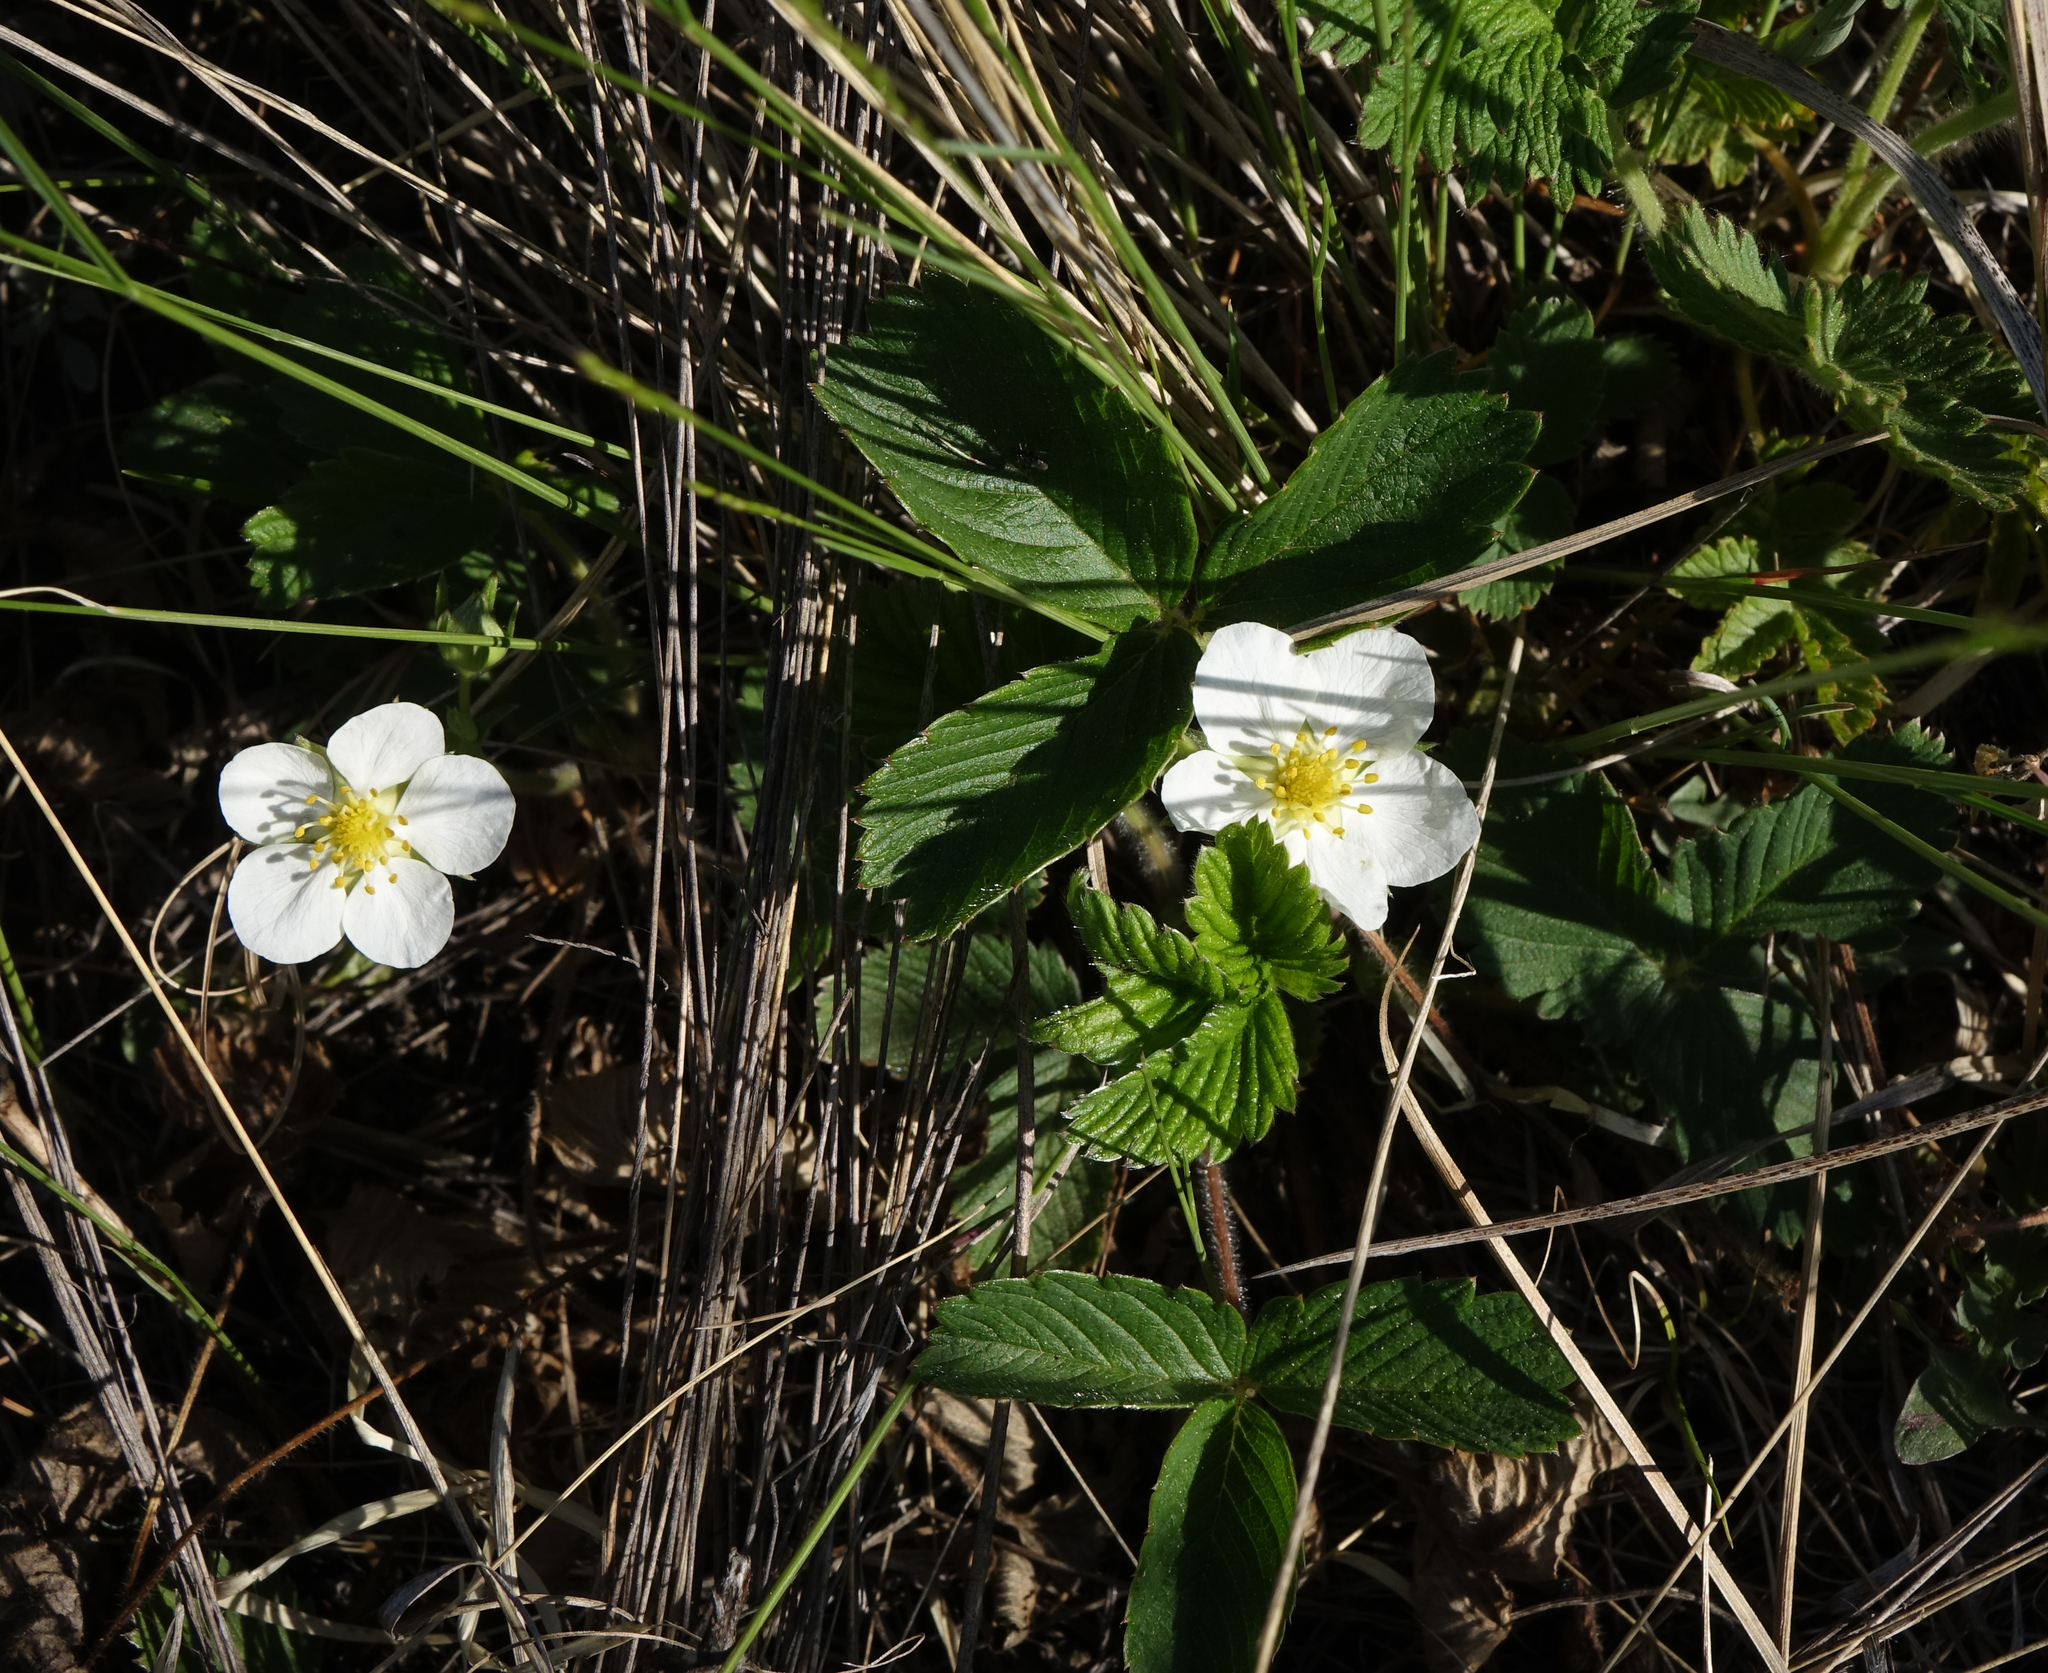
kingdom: Plantae
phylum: Tracheophyta
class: Magnoliopsida
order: Rosales
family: Rosaceae
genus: Fragaria
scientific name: Fragaria viridis
